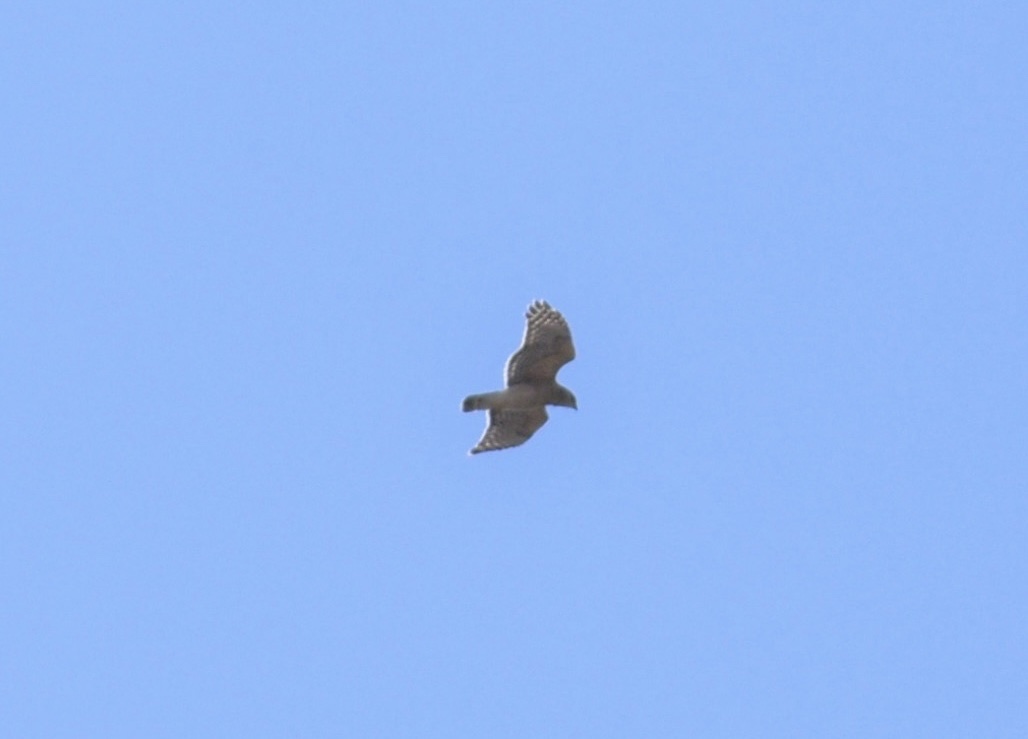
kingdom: Animalia
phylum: Chordata
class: Aves
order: Accipitriformes
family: Accipitridae
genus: Buteo
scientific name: Buteo lineatus
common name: Red-shouldered hawk
